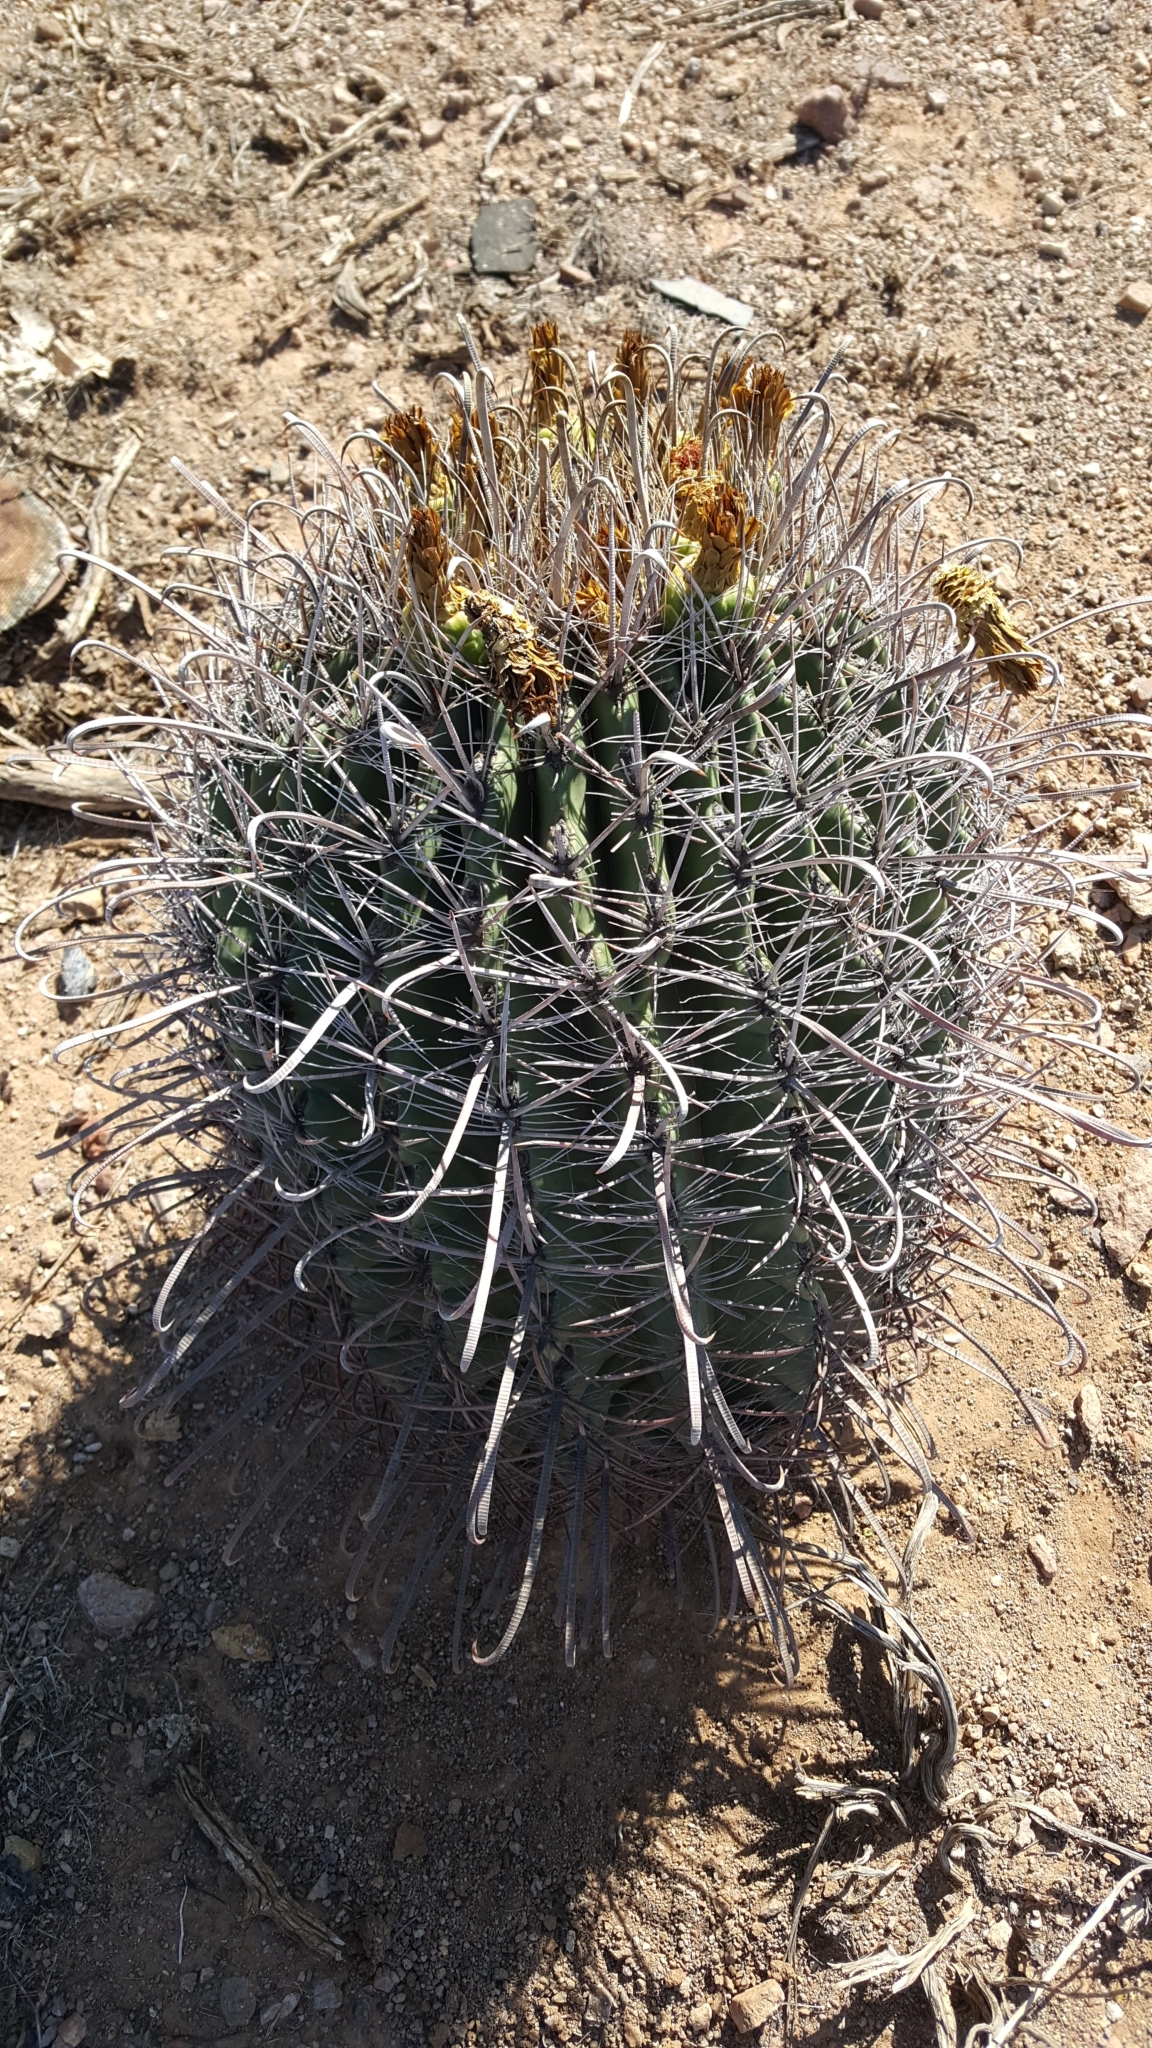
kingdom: Plantae
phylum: Tracheophyta
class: Magnoliopsida
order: Caryophyllales
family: Cactaceae
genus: Ferocactus
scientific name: Ferocactus wislizeni
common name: Candy barrel cactus
